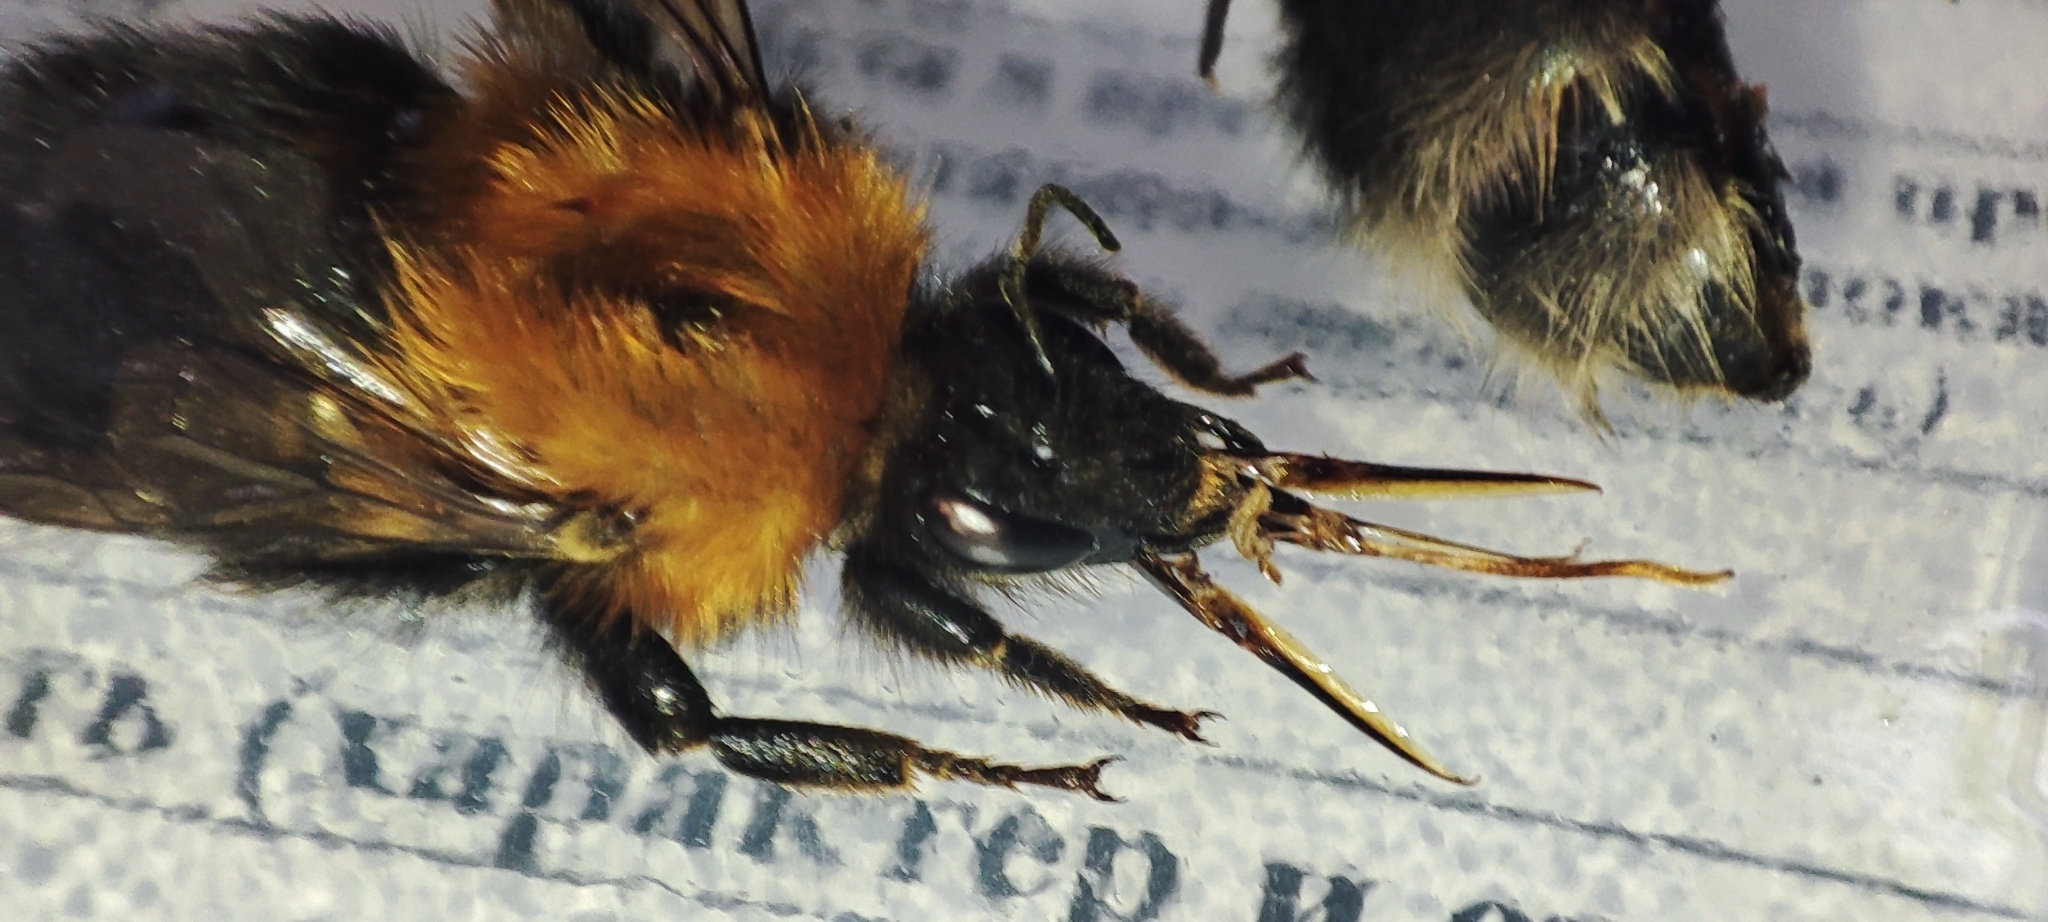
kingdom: Animalia
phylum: Arthropoda
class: Insecta
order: Hymenoptera
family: Apidae
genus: Bombus
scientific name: Bombus hypnorum
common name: New garden bumblebee
